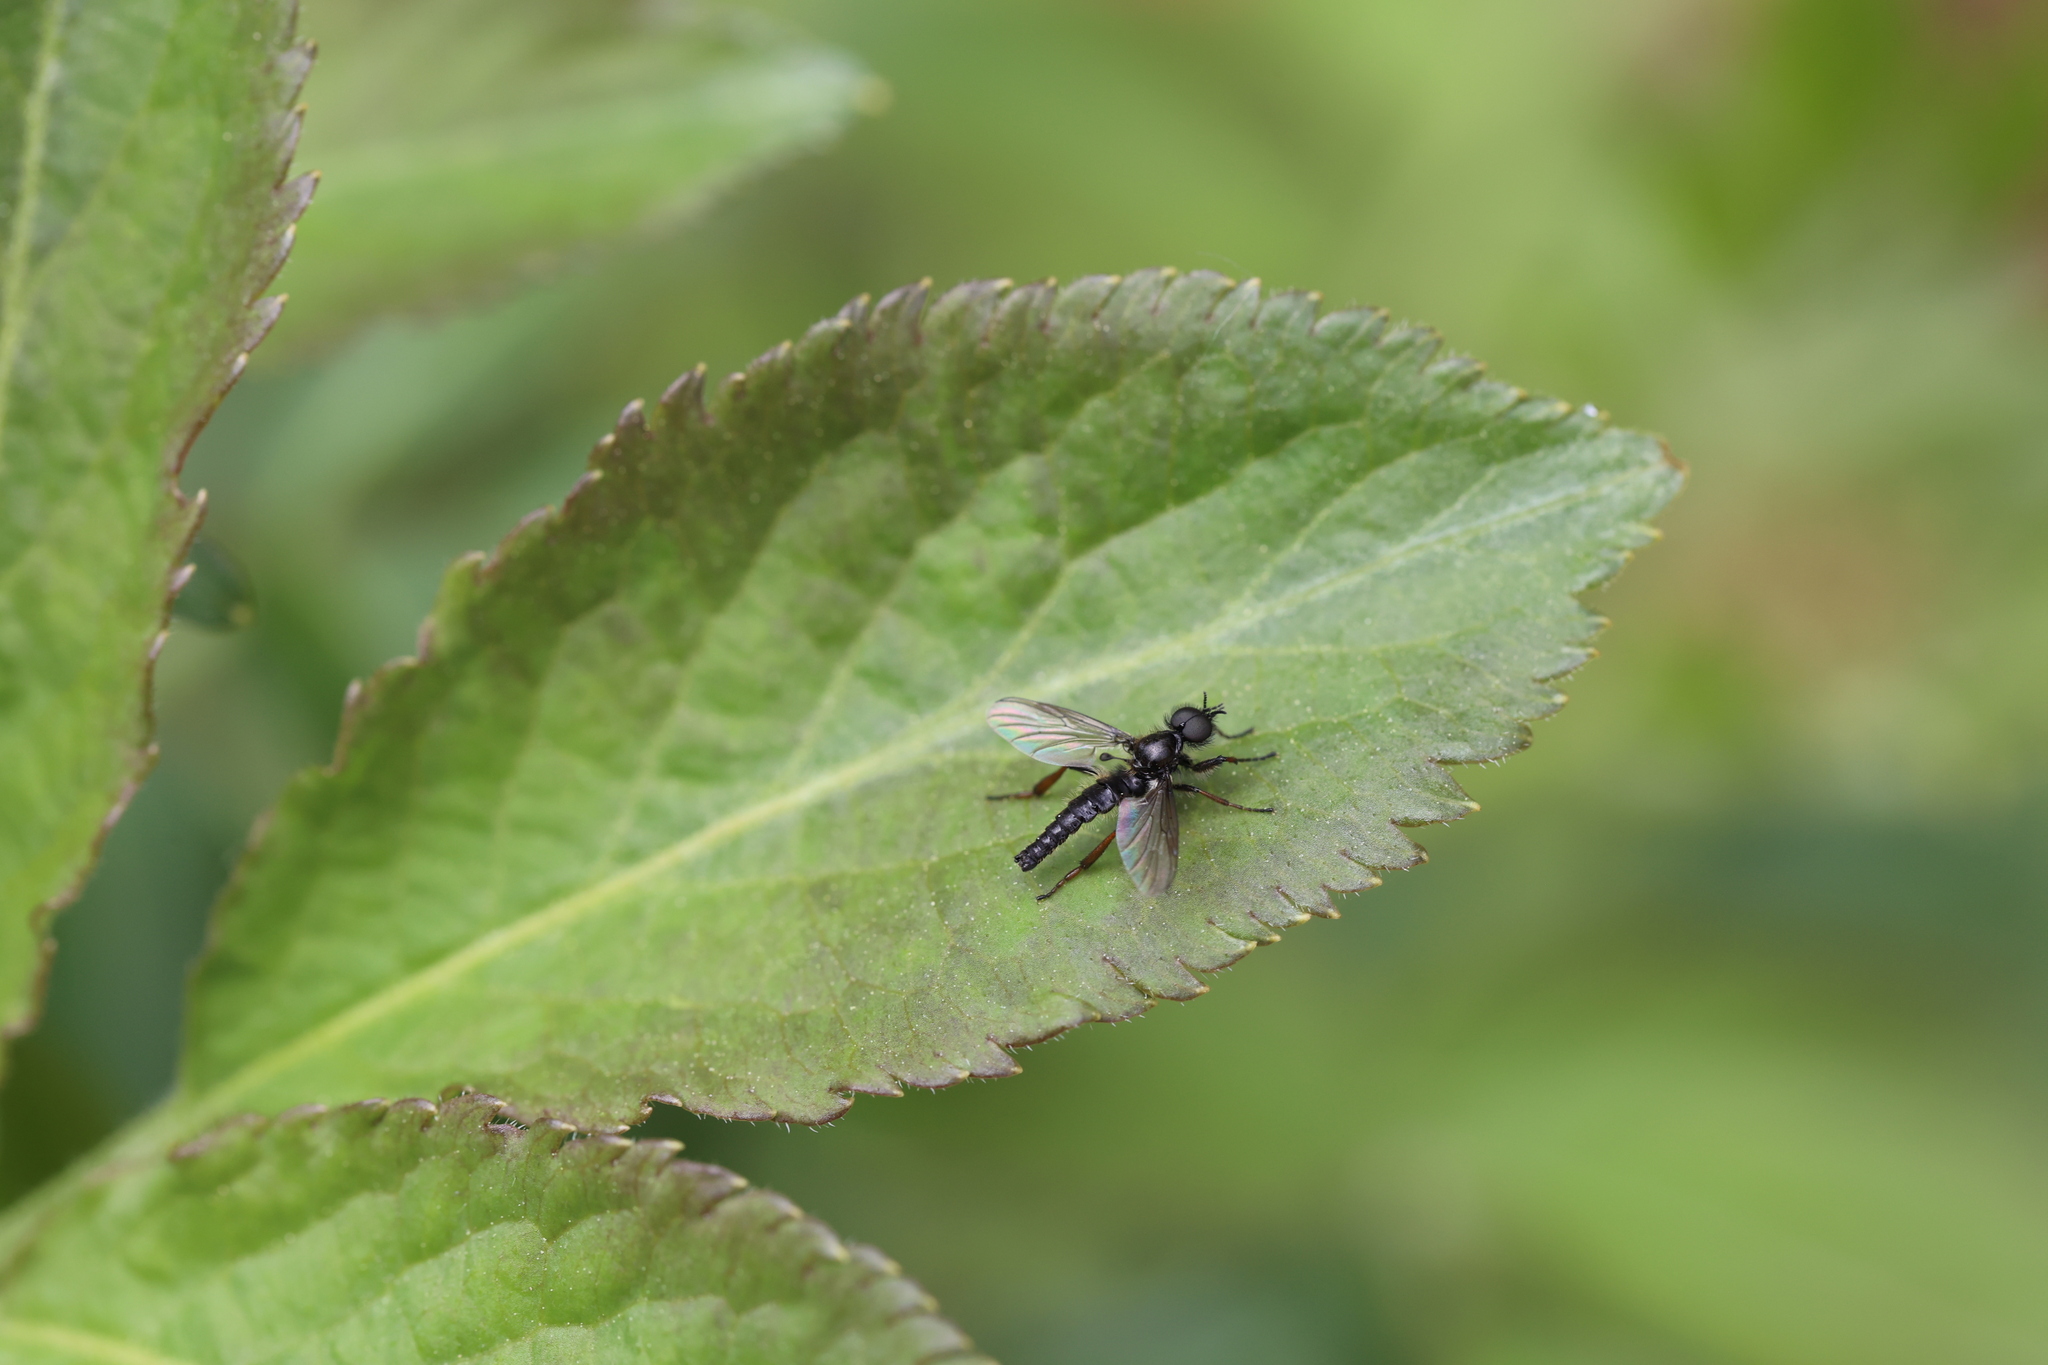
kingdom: Animalia
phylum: Arthropoda
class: Insecta
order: Diptera
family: Bibionidae
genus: Bibio
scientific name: Bibio marci
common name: St marks fly
